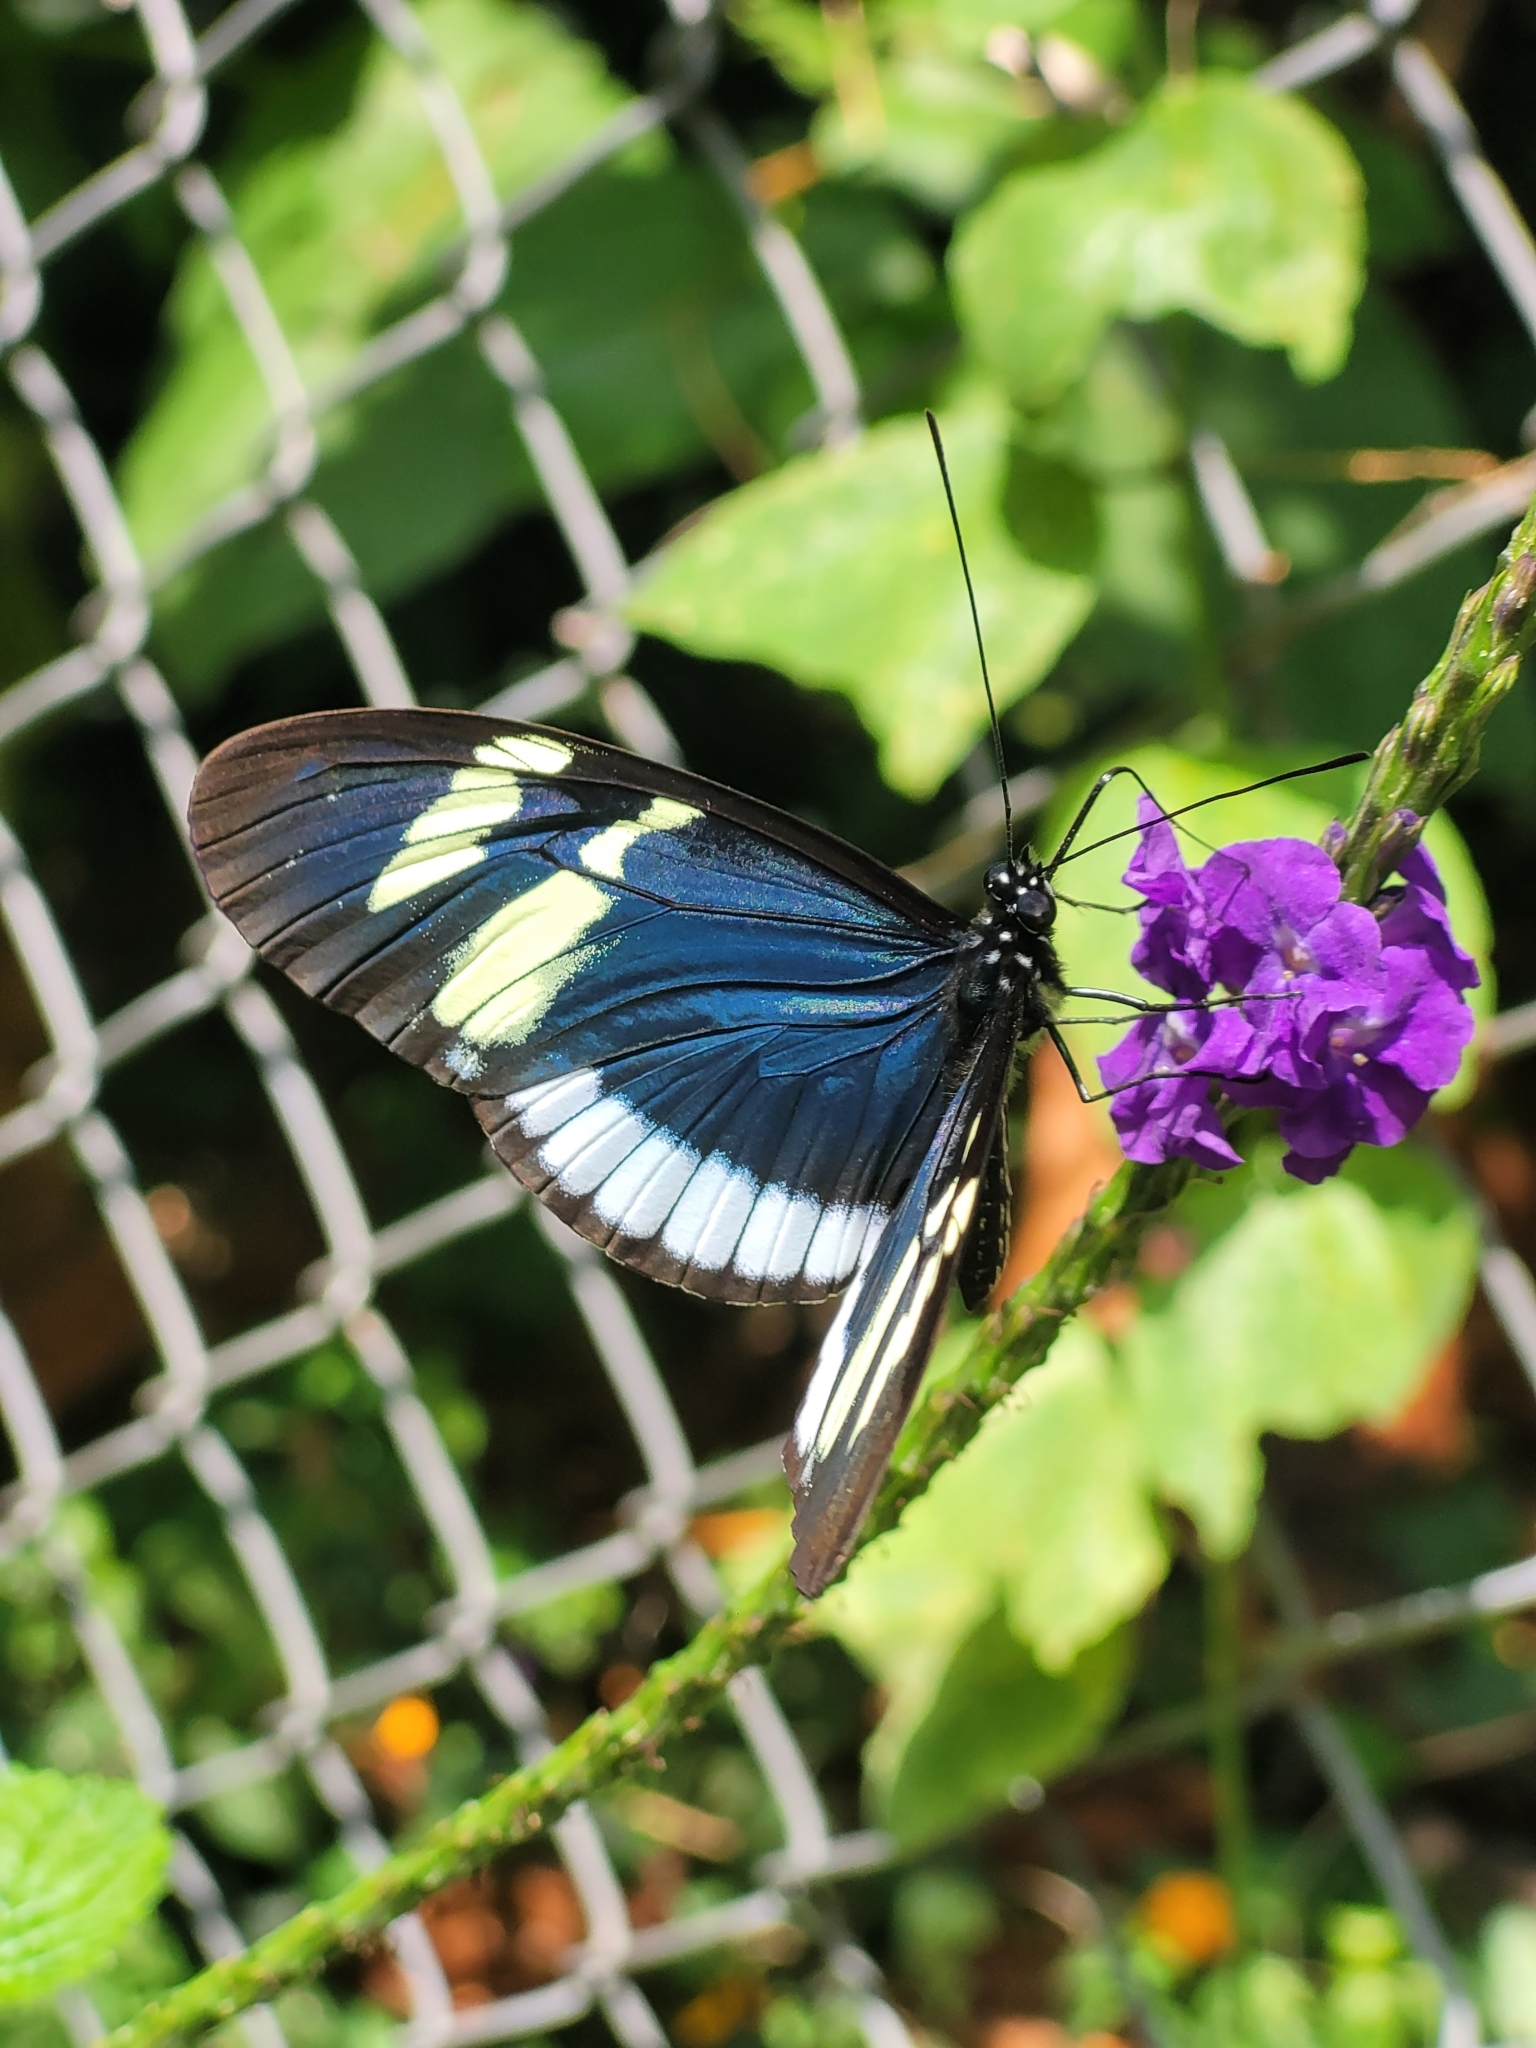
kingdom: Animalia
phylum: Arthropoda
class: Insecta
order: Lepidoptera
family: Nymphalidae
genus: Heliconius
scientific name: Heliconius cydno
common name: Cydno longwing
